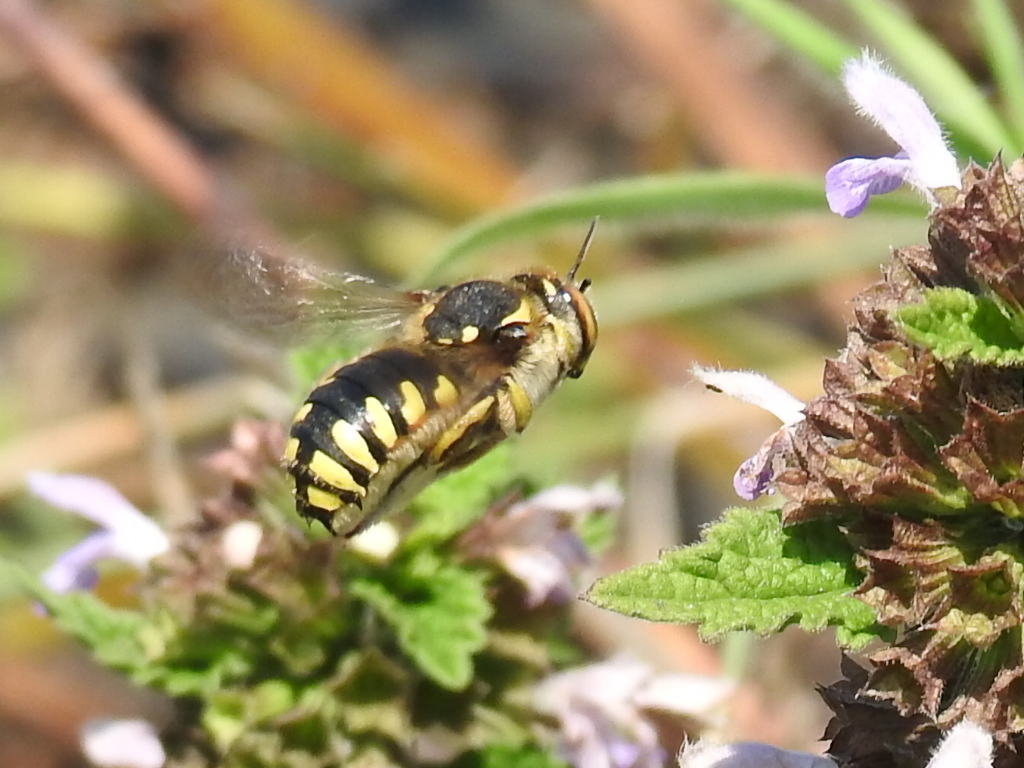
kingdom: Animalia
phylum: Arthropoda
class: Insecta
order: Hymenoptera
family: Megachilidae
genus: Anthidium
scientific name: Anthidium florentinum
